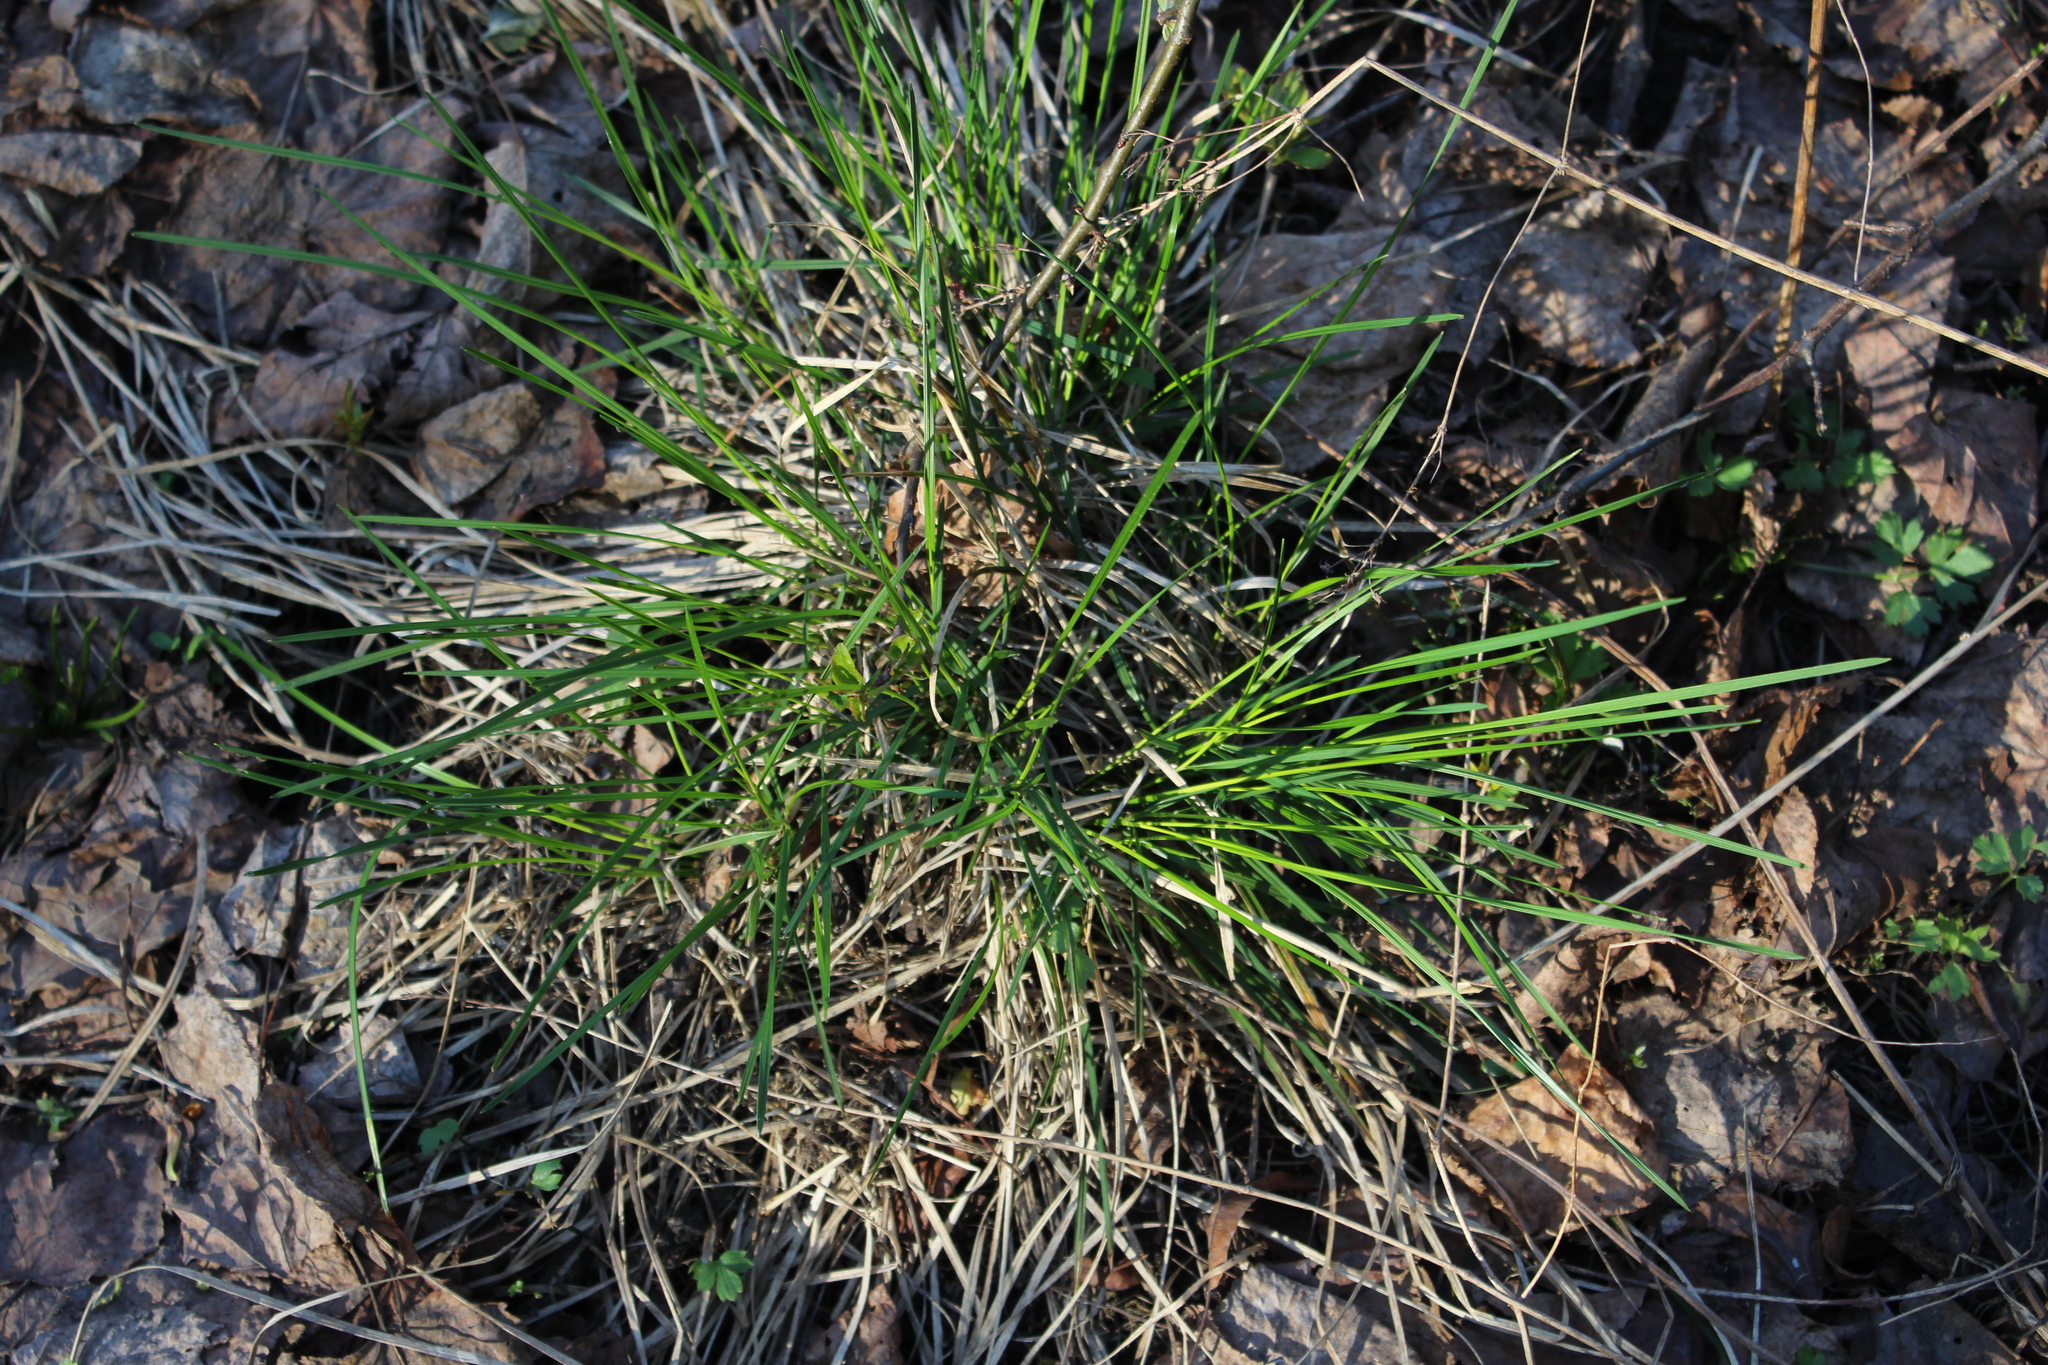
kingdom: Plantae
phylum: Tracheophyta
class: Liliopsida
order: Poales
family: Poaceae
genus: Deschampsia
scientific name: Deschampsia cespitosa
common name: Tufted hair-grass
